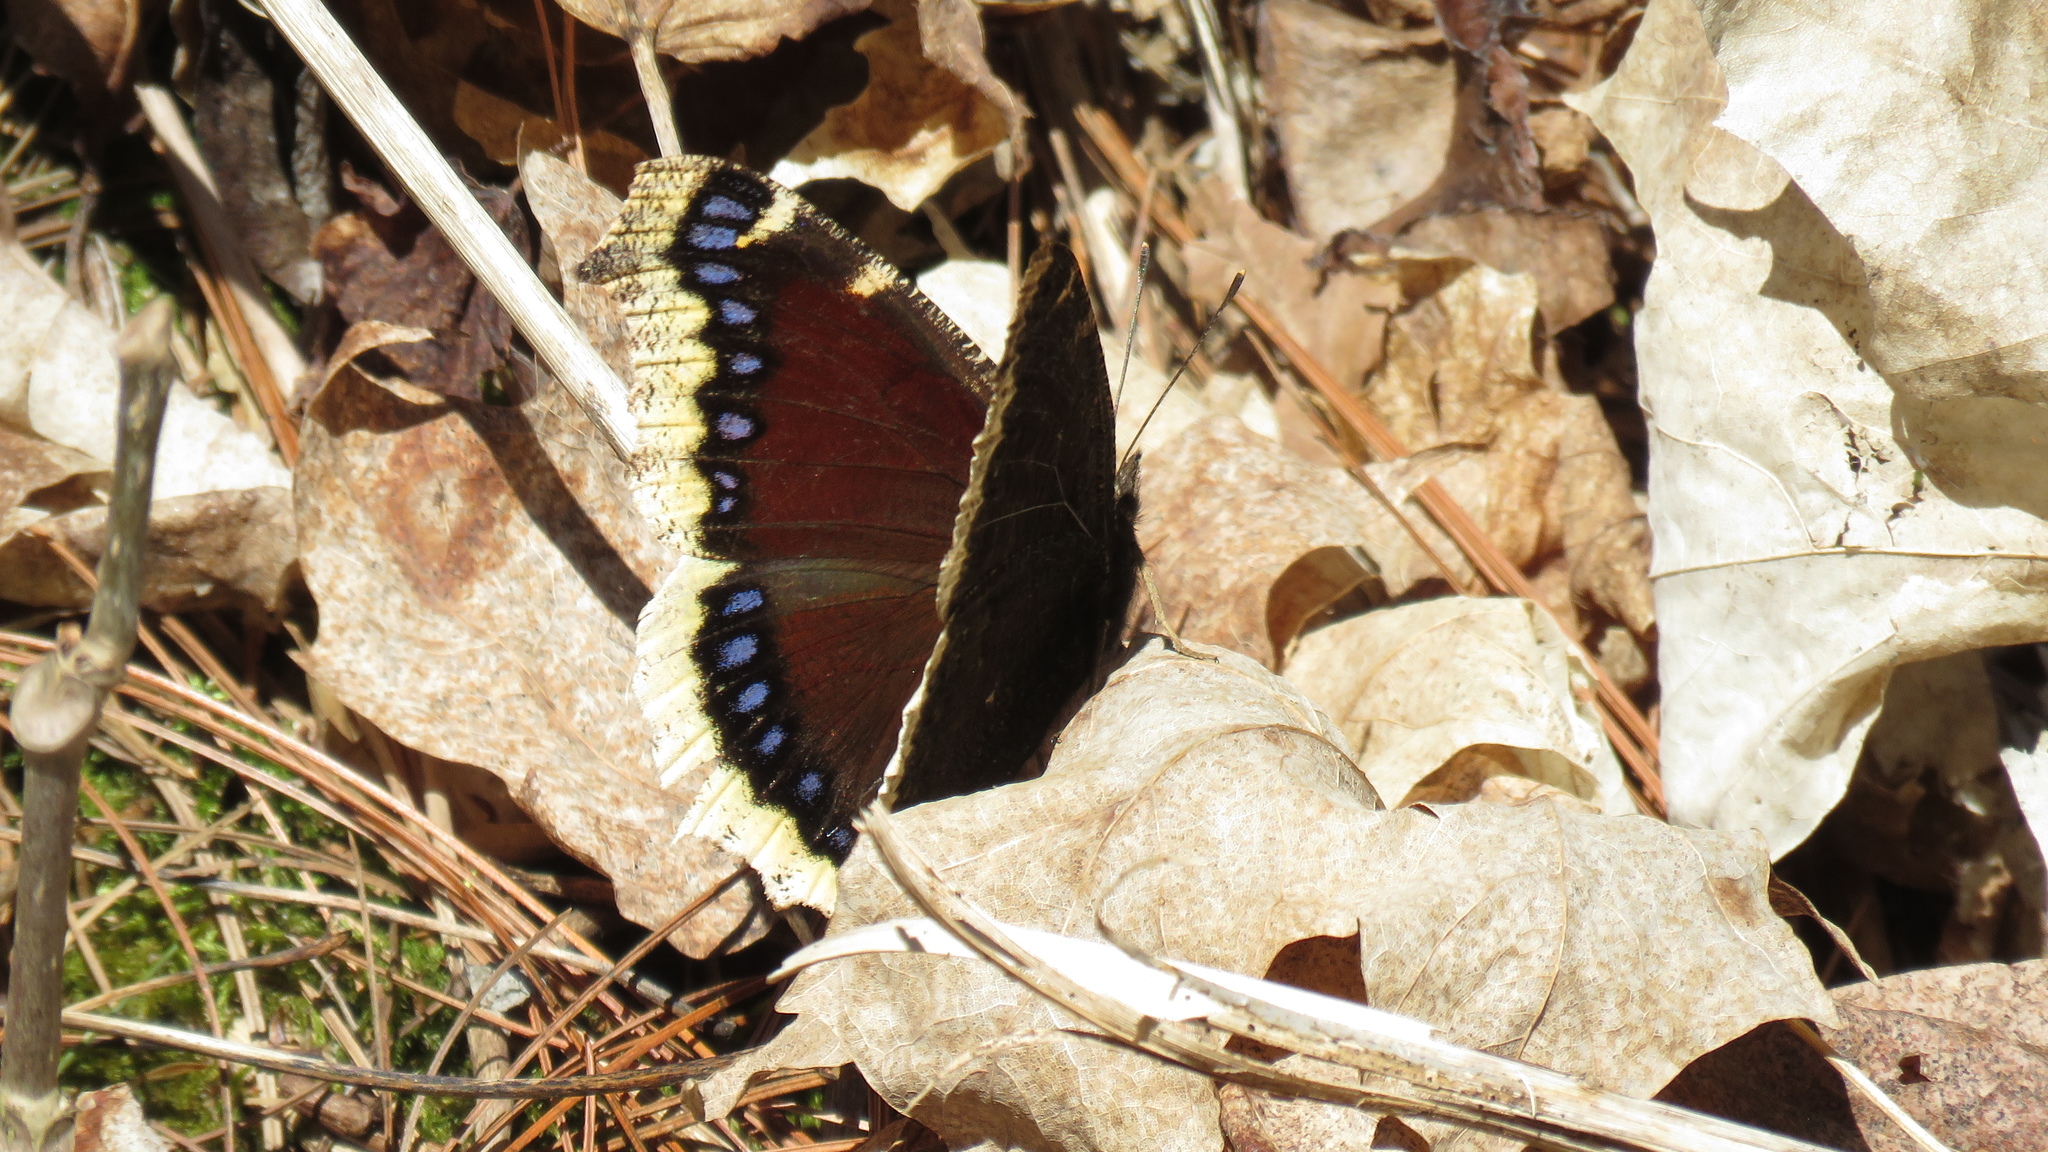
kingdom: Animalia
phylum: Arthropoda
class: Insecta
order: Lepidoptera
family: Nymphalidae
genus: Nymphalis
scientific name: Nymphalis antiopa
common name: Camberwell beauty
